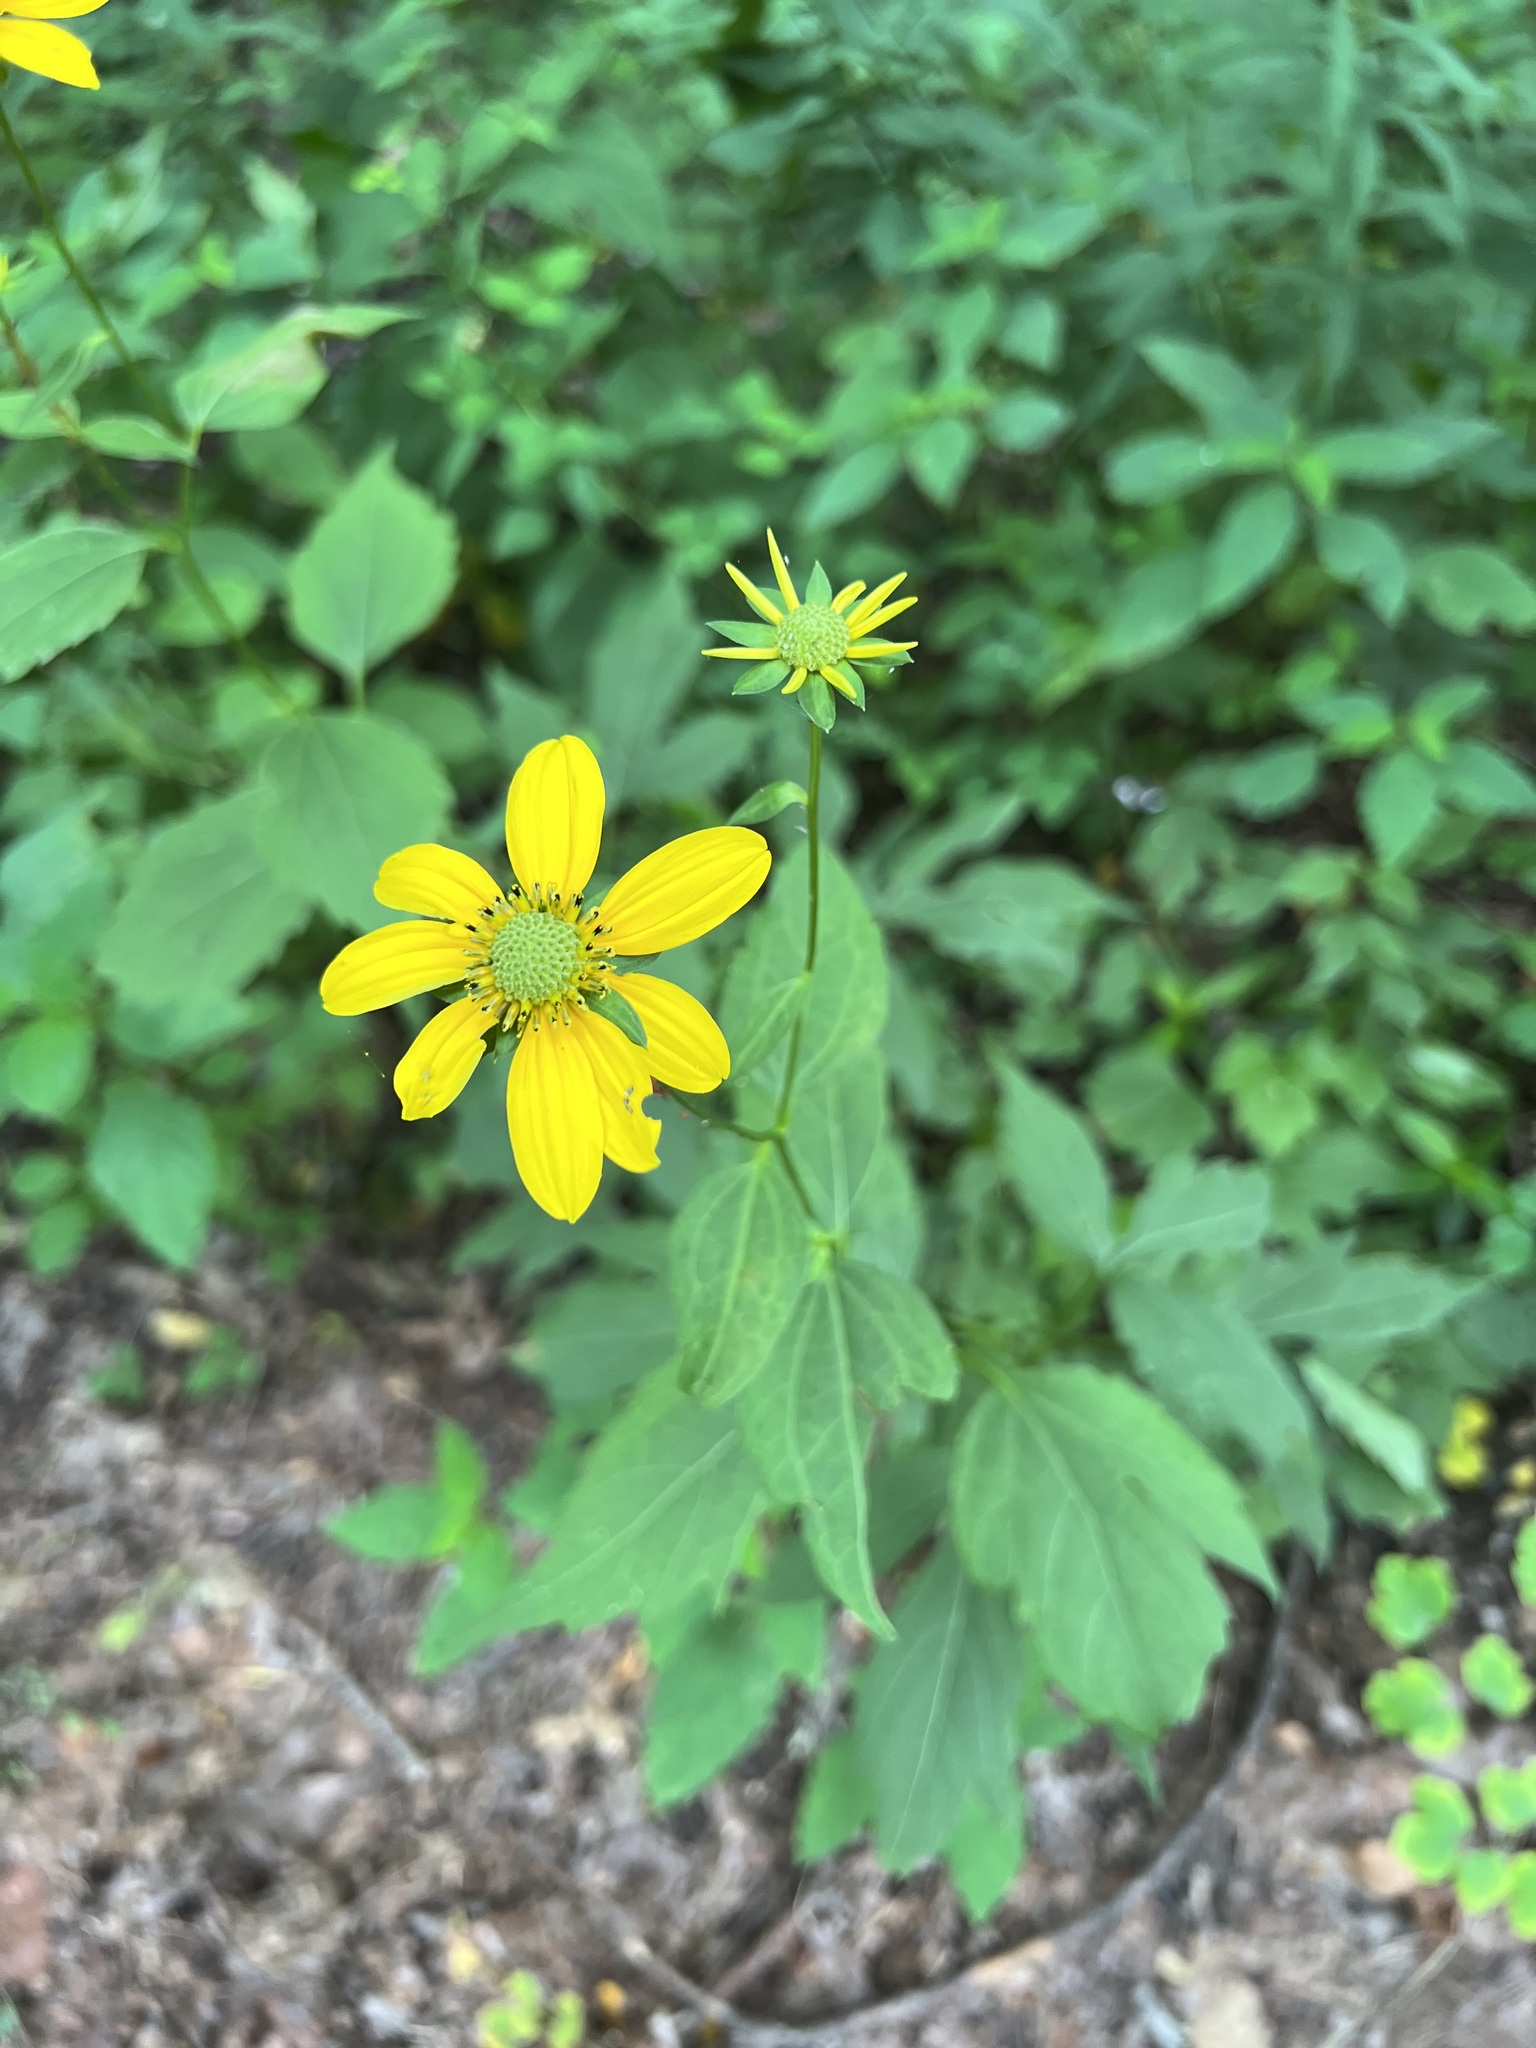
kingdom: Plantae
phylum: Tracheophyta
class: Magnoliopsida
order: Asterales
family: Asteraceae
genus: Rudbeckia
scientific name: Rudbeckia laciniata
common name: Coneflower
